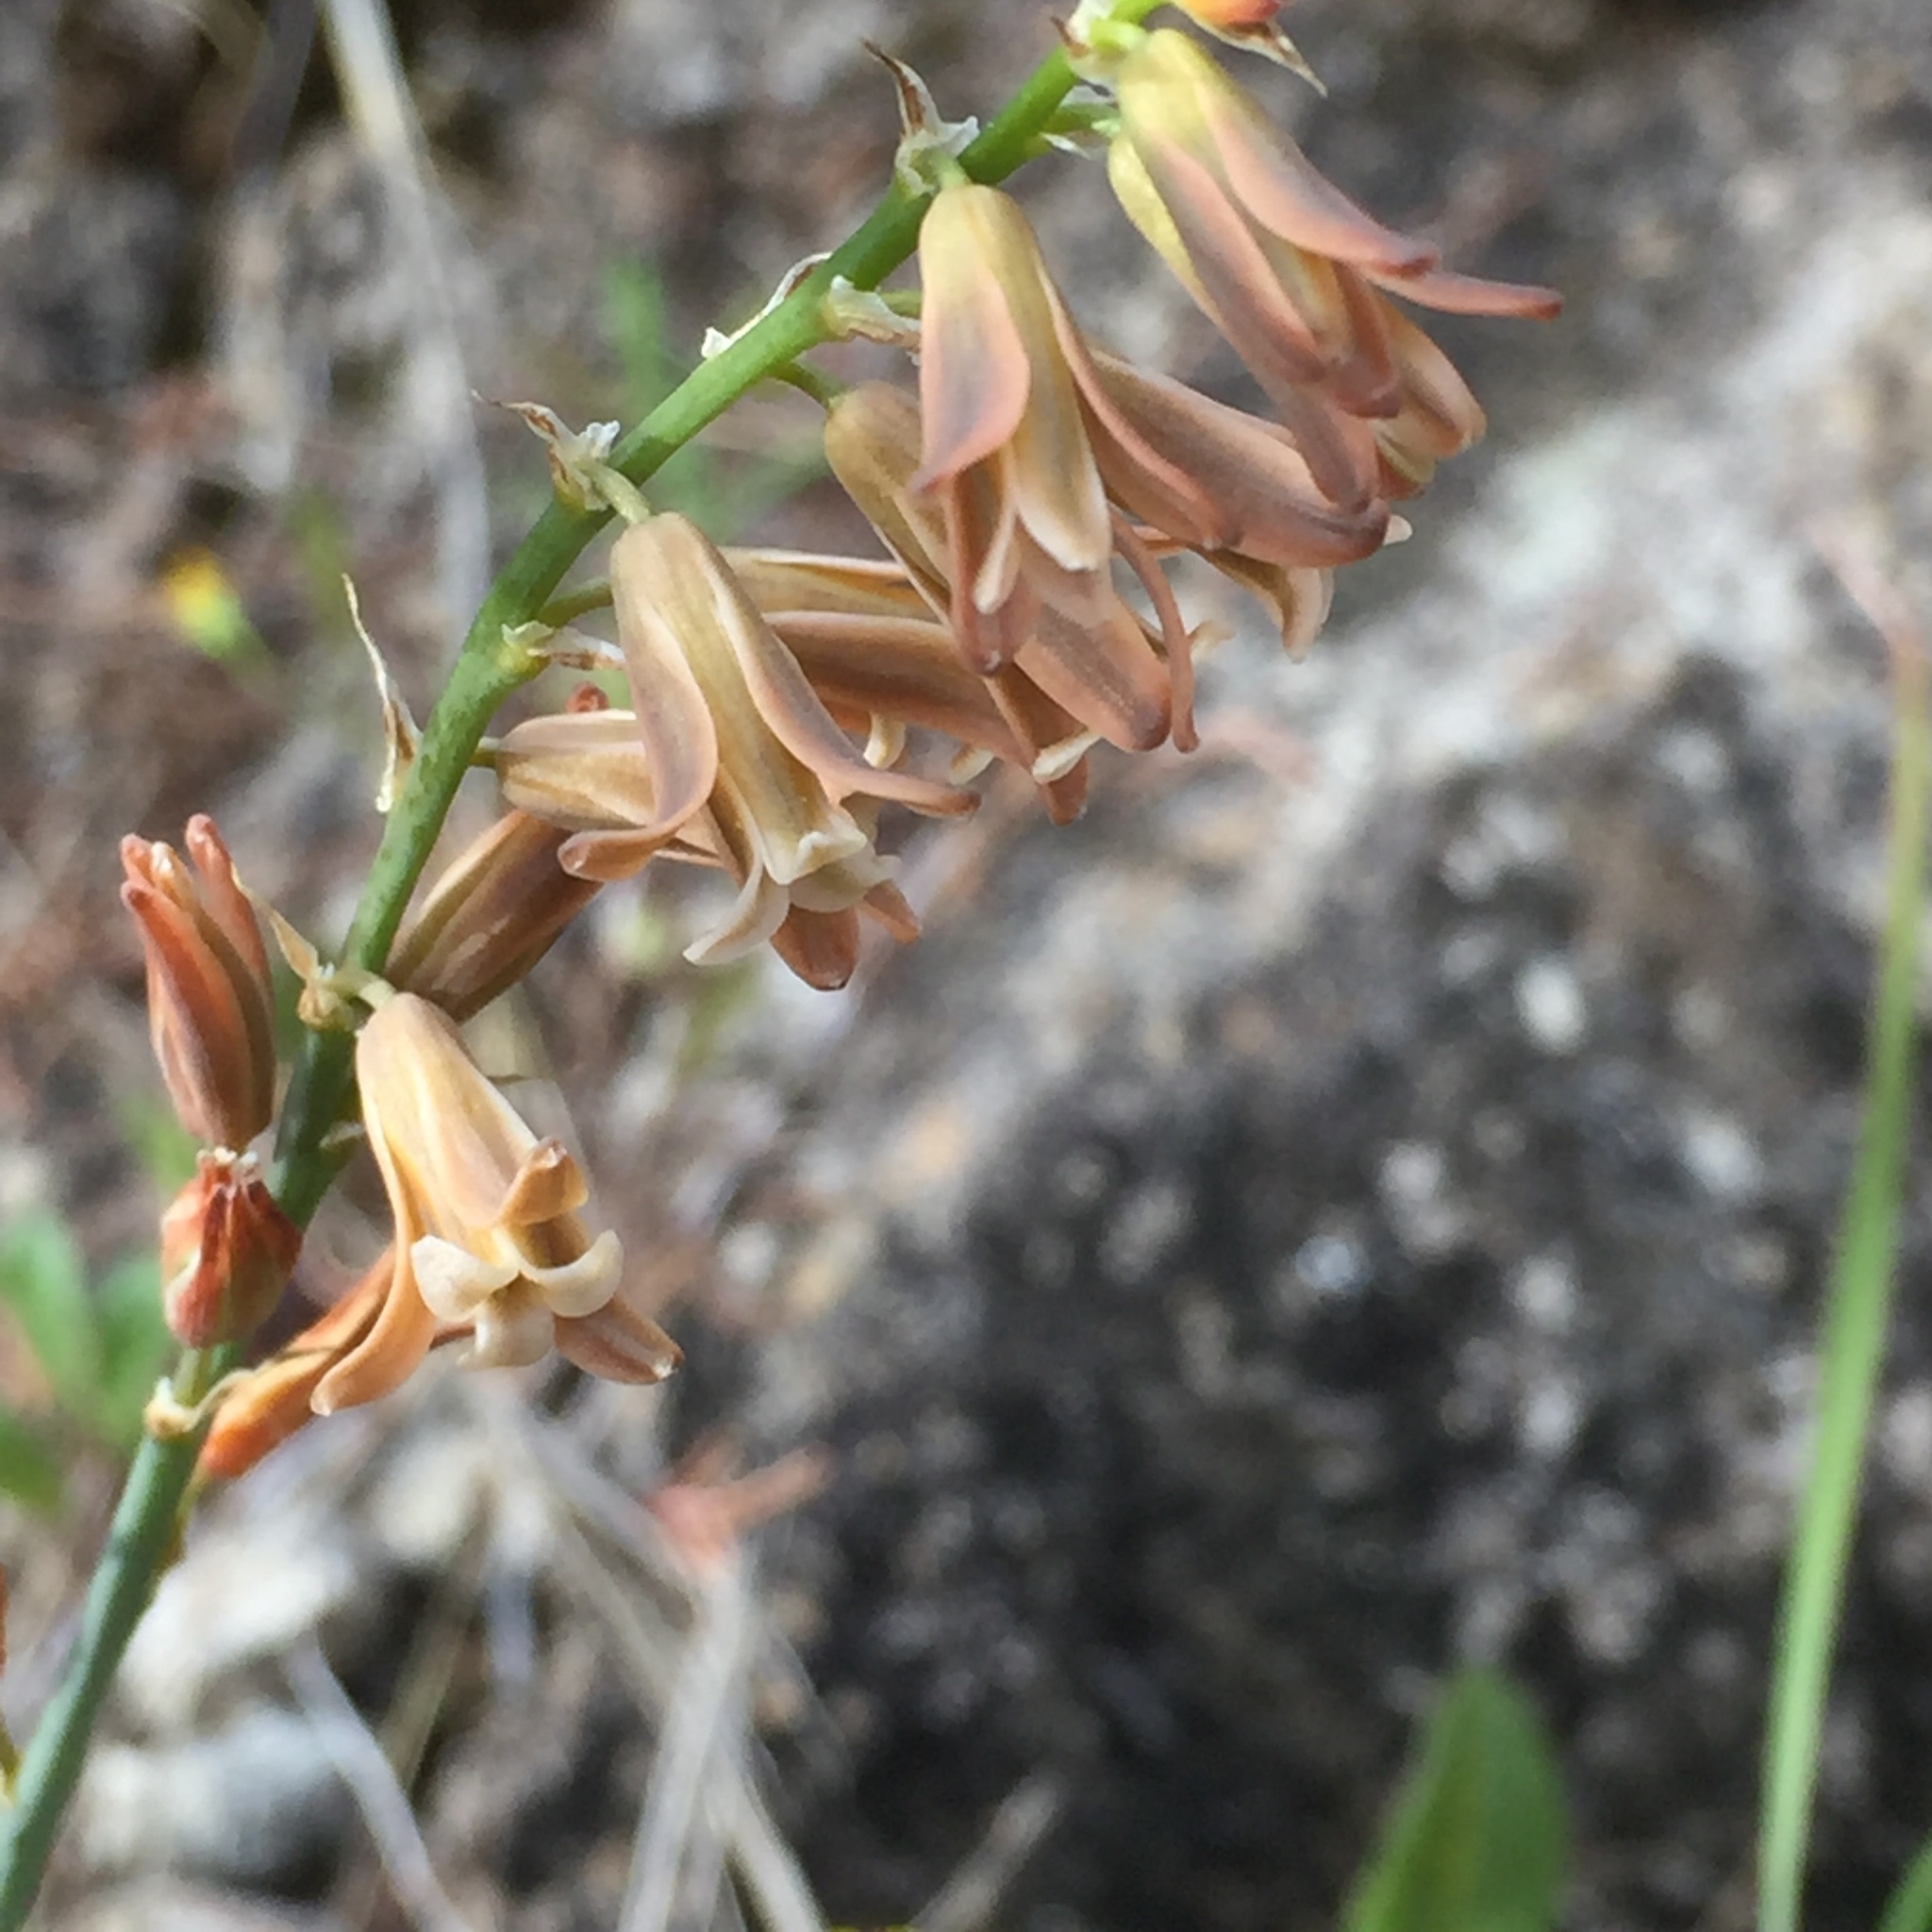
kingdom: Plantae
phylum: Tracheophyta
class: Liliopsida
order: Asparagales
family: Asparagaceae
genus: Dipcadi
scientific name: Dipcadi serotinum
